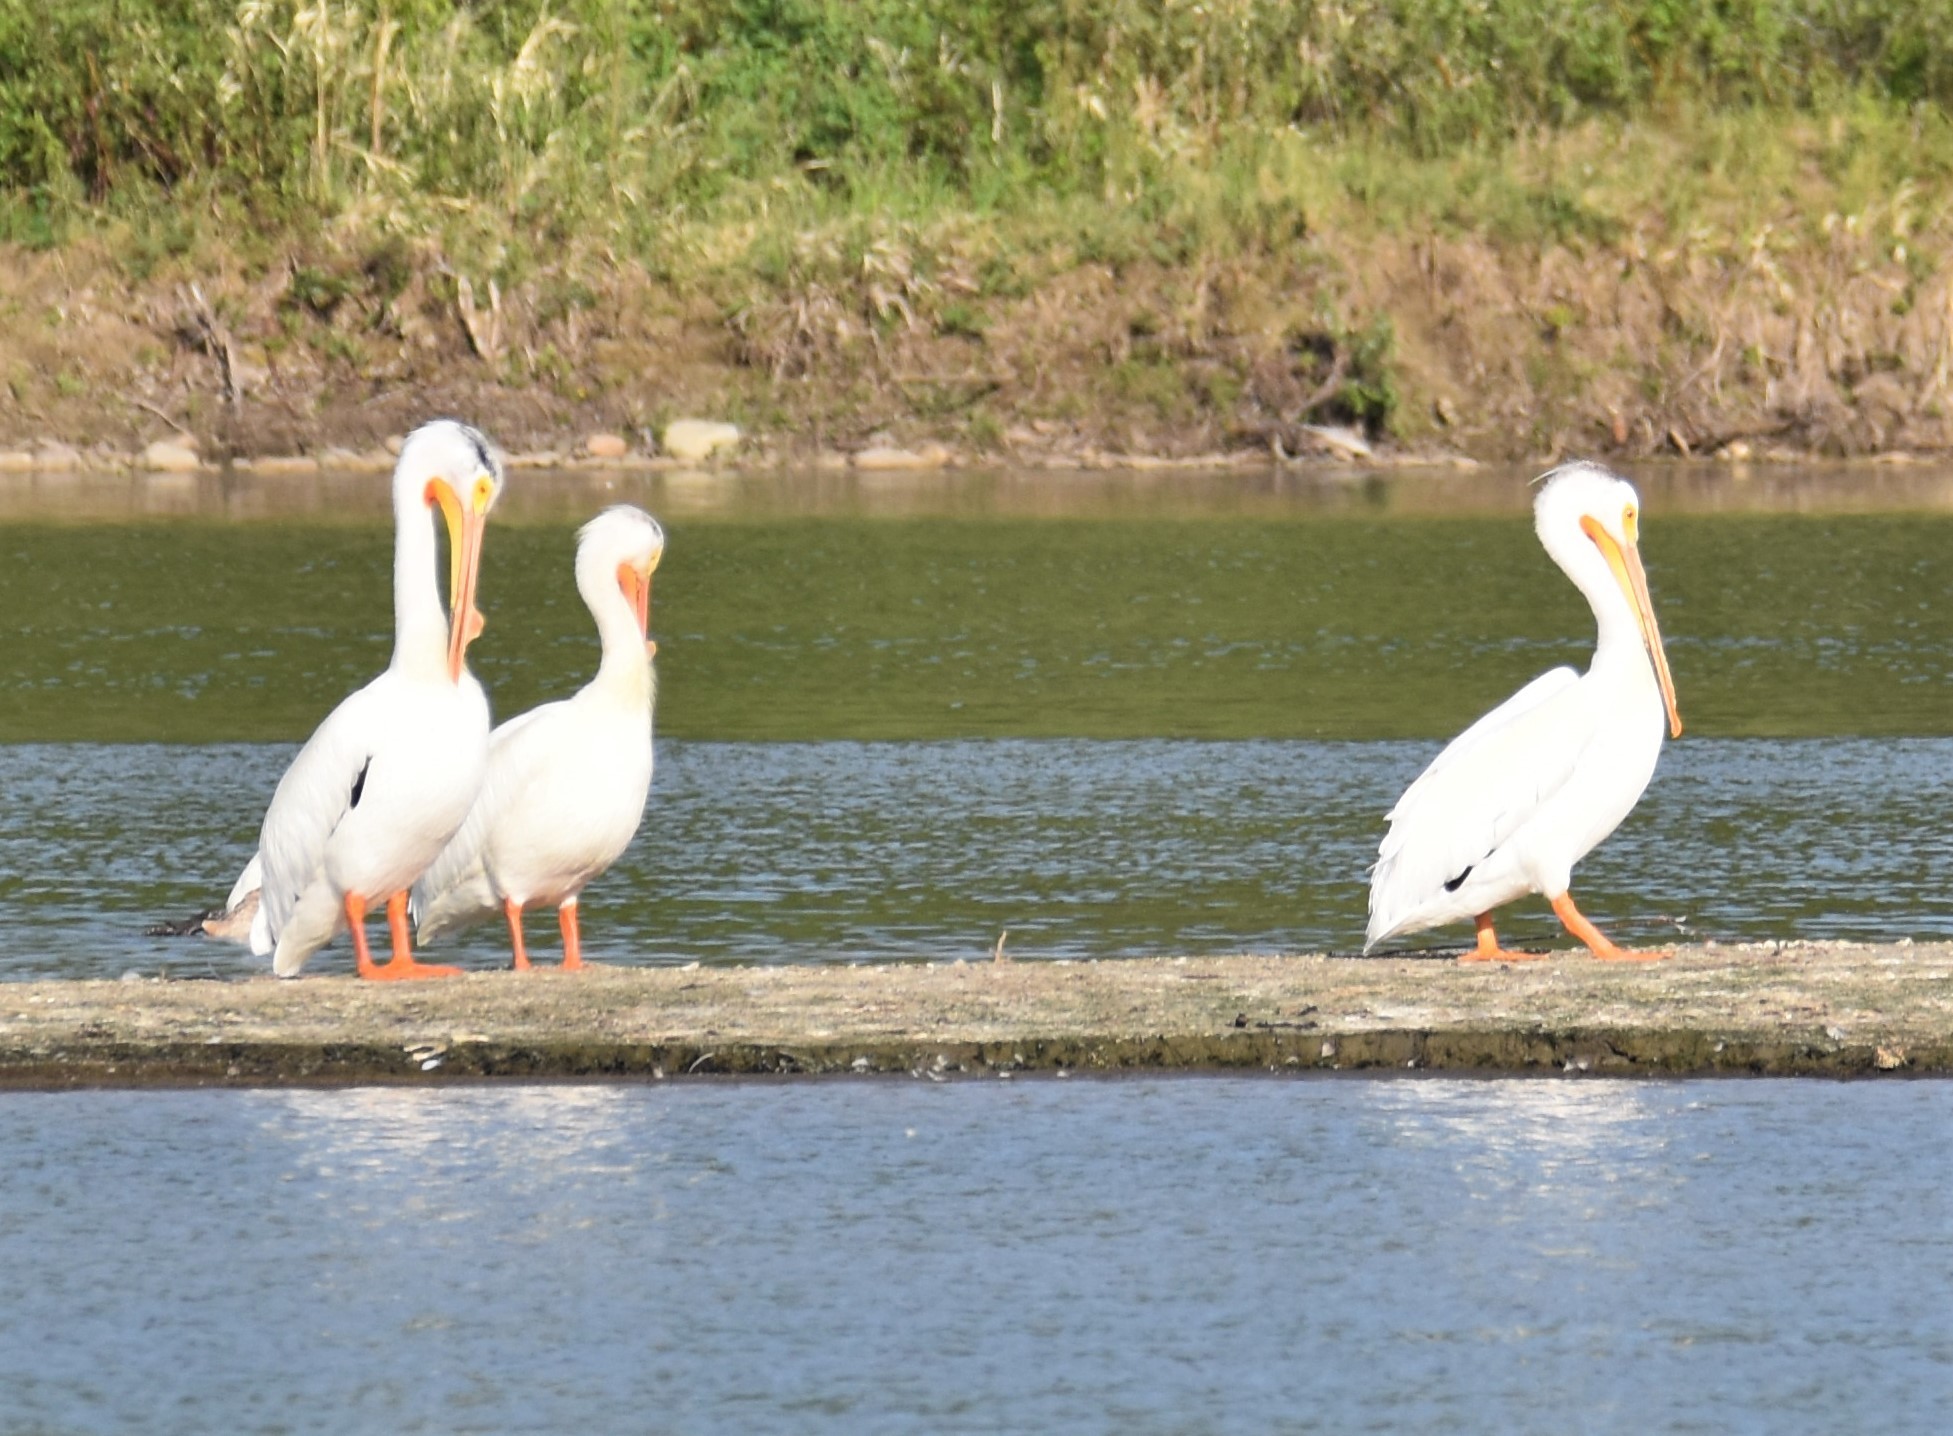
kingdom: Animalia
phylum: Chordata
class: Aves
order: Pelecaniformes
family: Pelecanidae
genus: Pelecanus
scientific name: Pelecanus erythrorhynchos
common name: American white pelican
